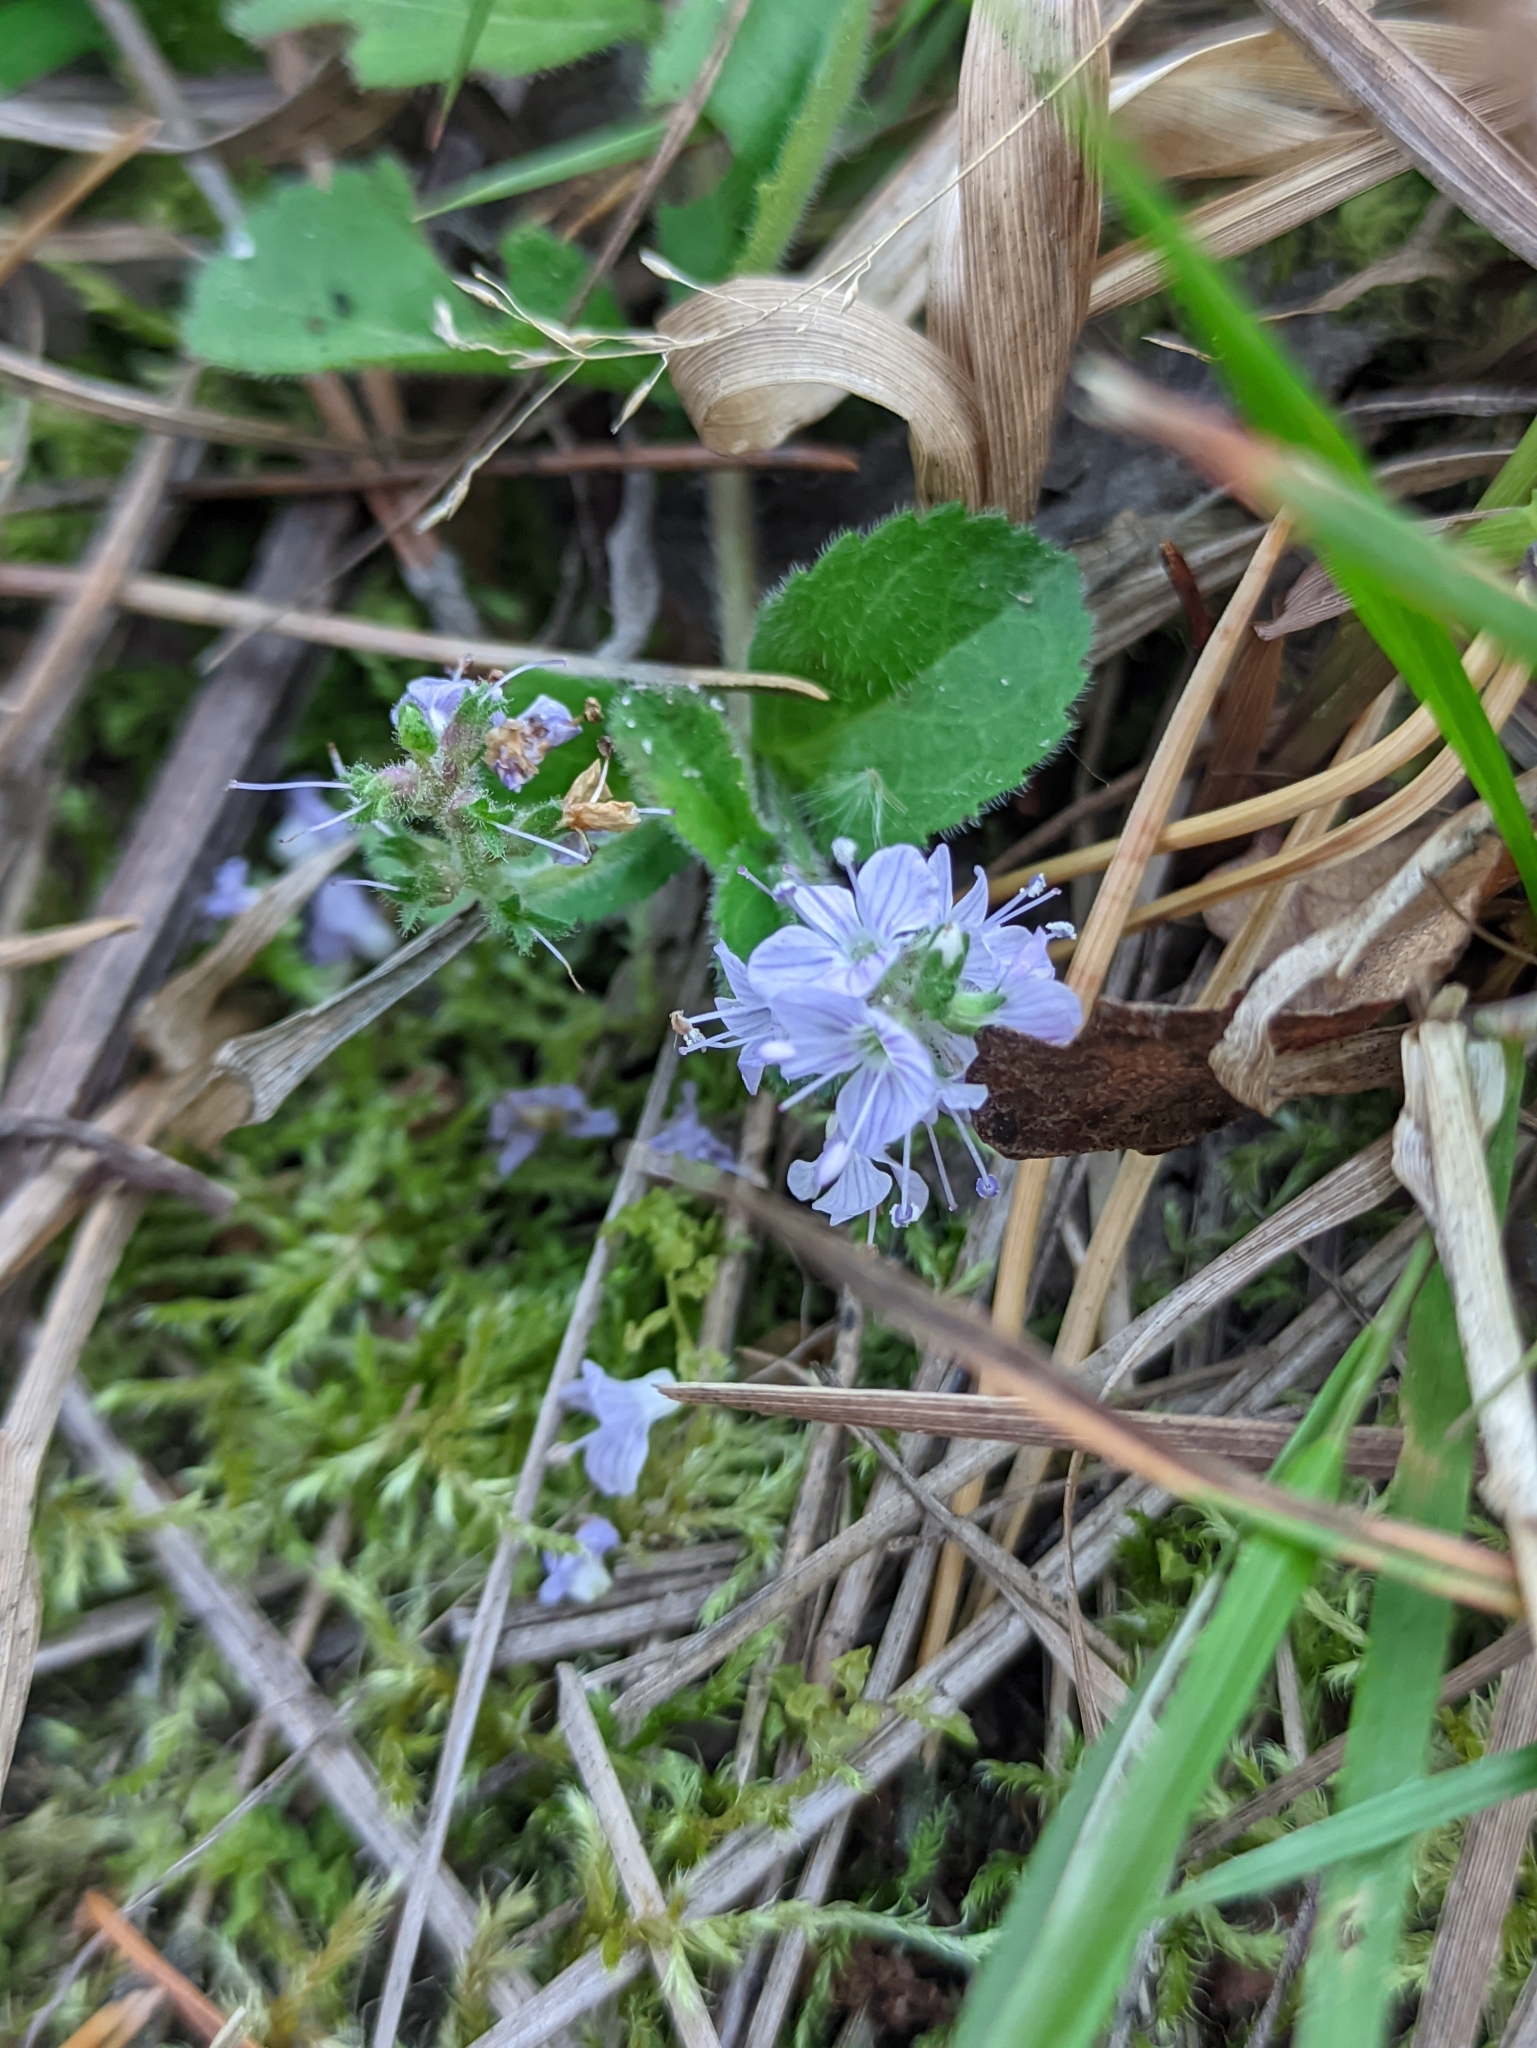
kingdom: Plantae
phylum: Tracheophyta
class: Magnoliopsida
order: Lamiales
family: Plantaginaceae
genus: Veronica
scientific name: Veronica officinalis
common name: Common speedwell
